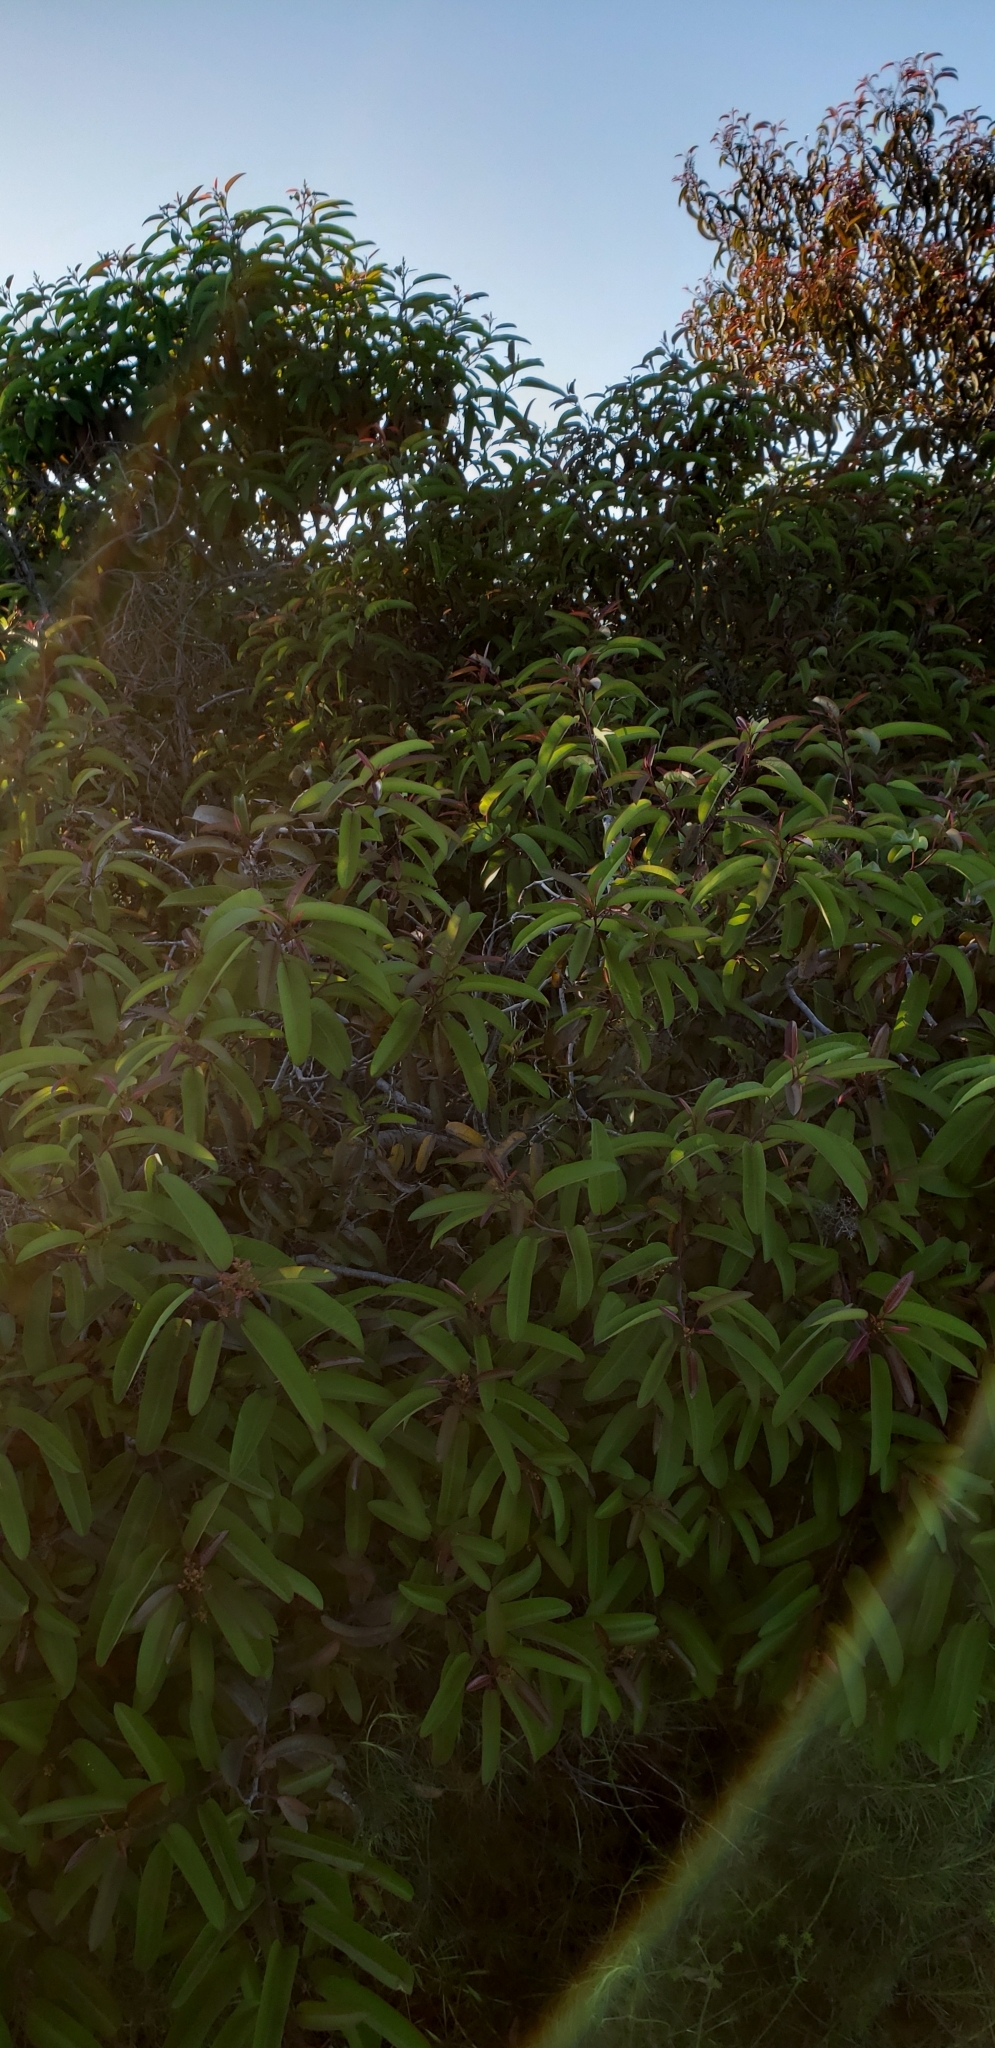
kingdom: Plantae
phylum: Tracheophyta
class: Magnoliopsida
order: Sapindales
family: Anacardiaceae
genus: Malosma
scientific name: Malosma laurina
